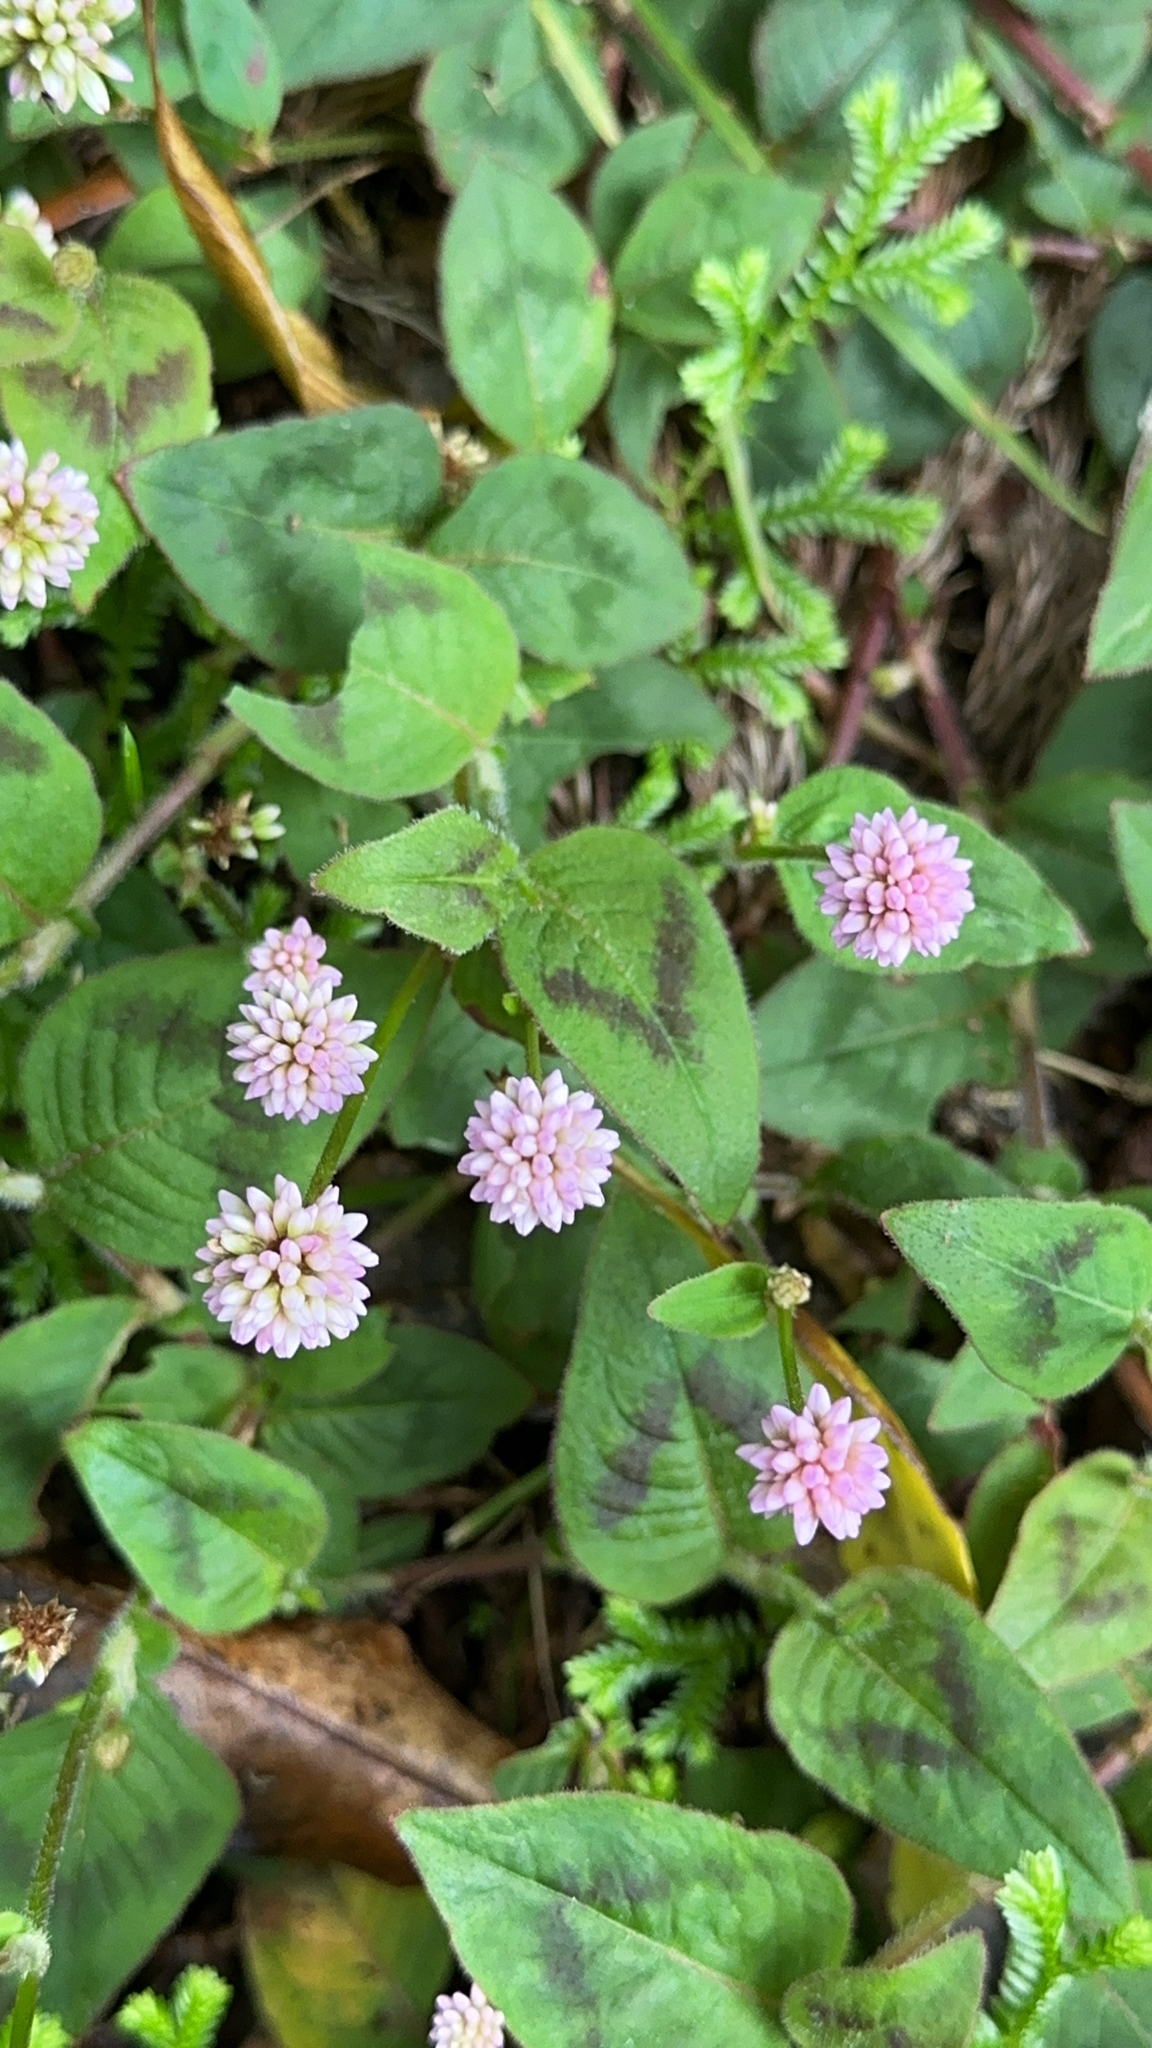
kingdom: Plantae
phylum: Tracheophyta
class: Magnoliopsida
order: Caryophyllales
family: Polygonaceae
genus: Persicaria
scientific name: Persicaria capitata
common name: Pinkhead smartweed
